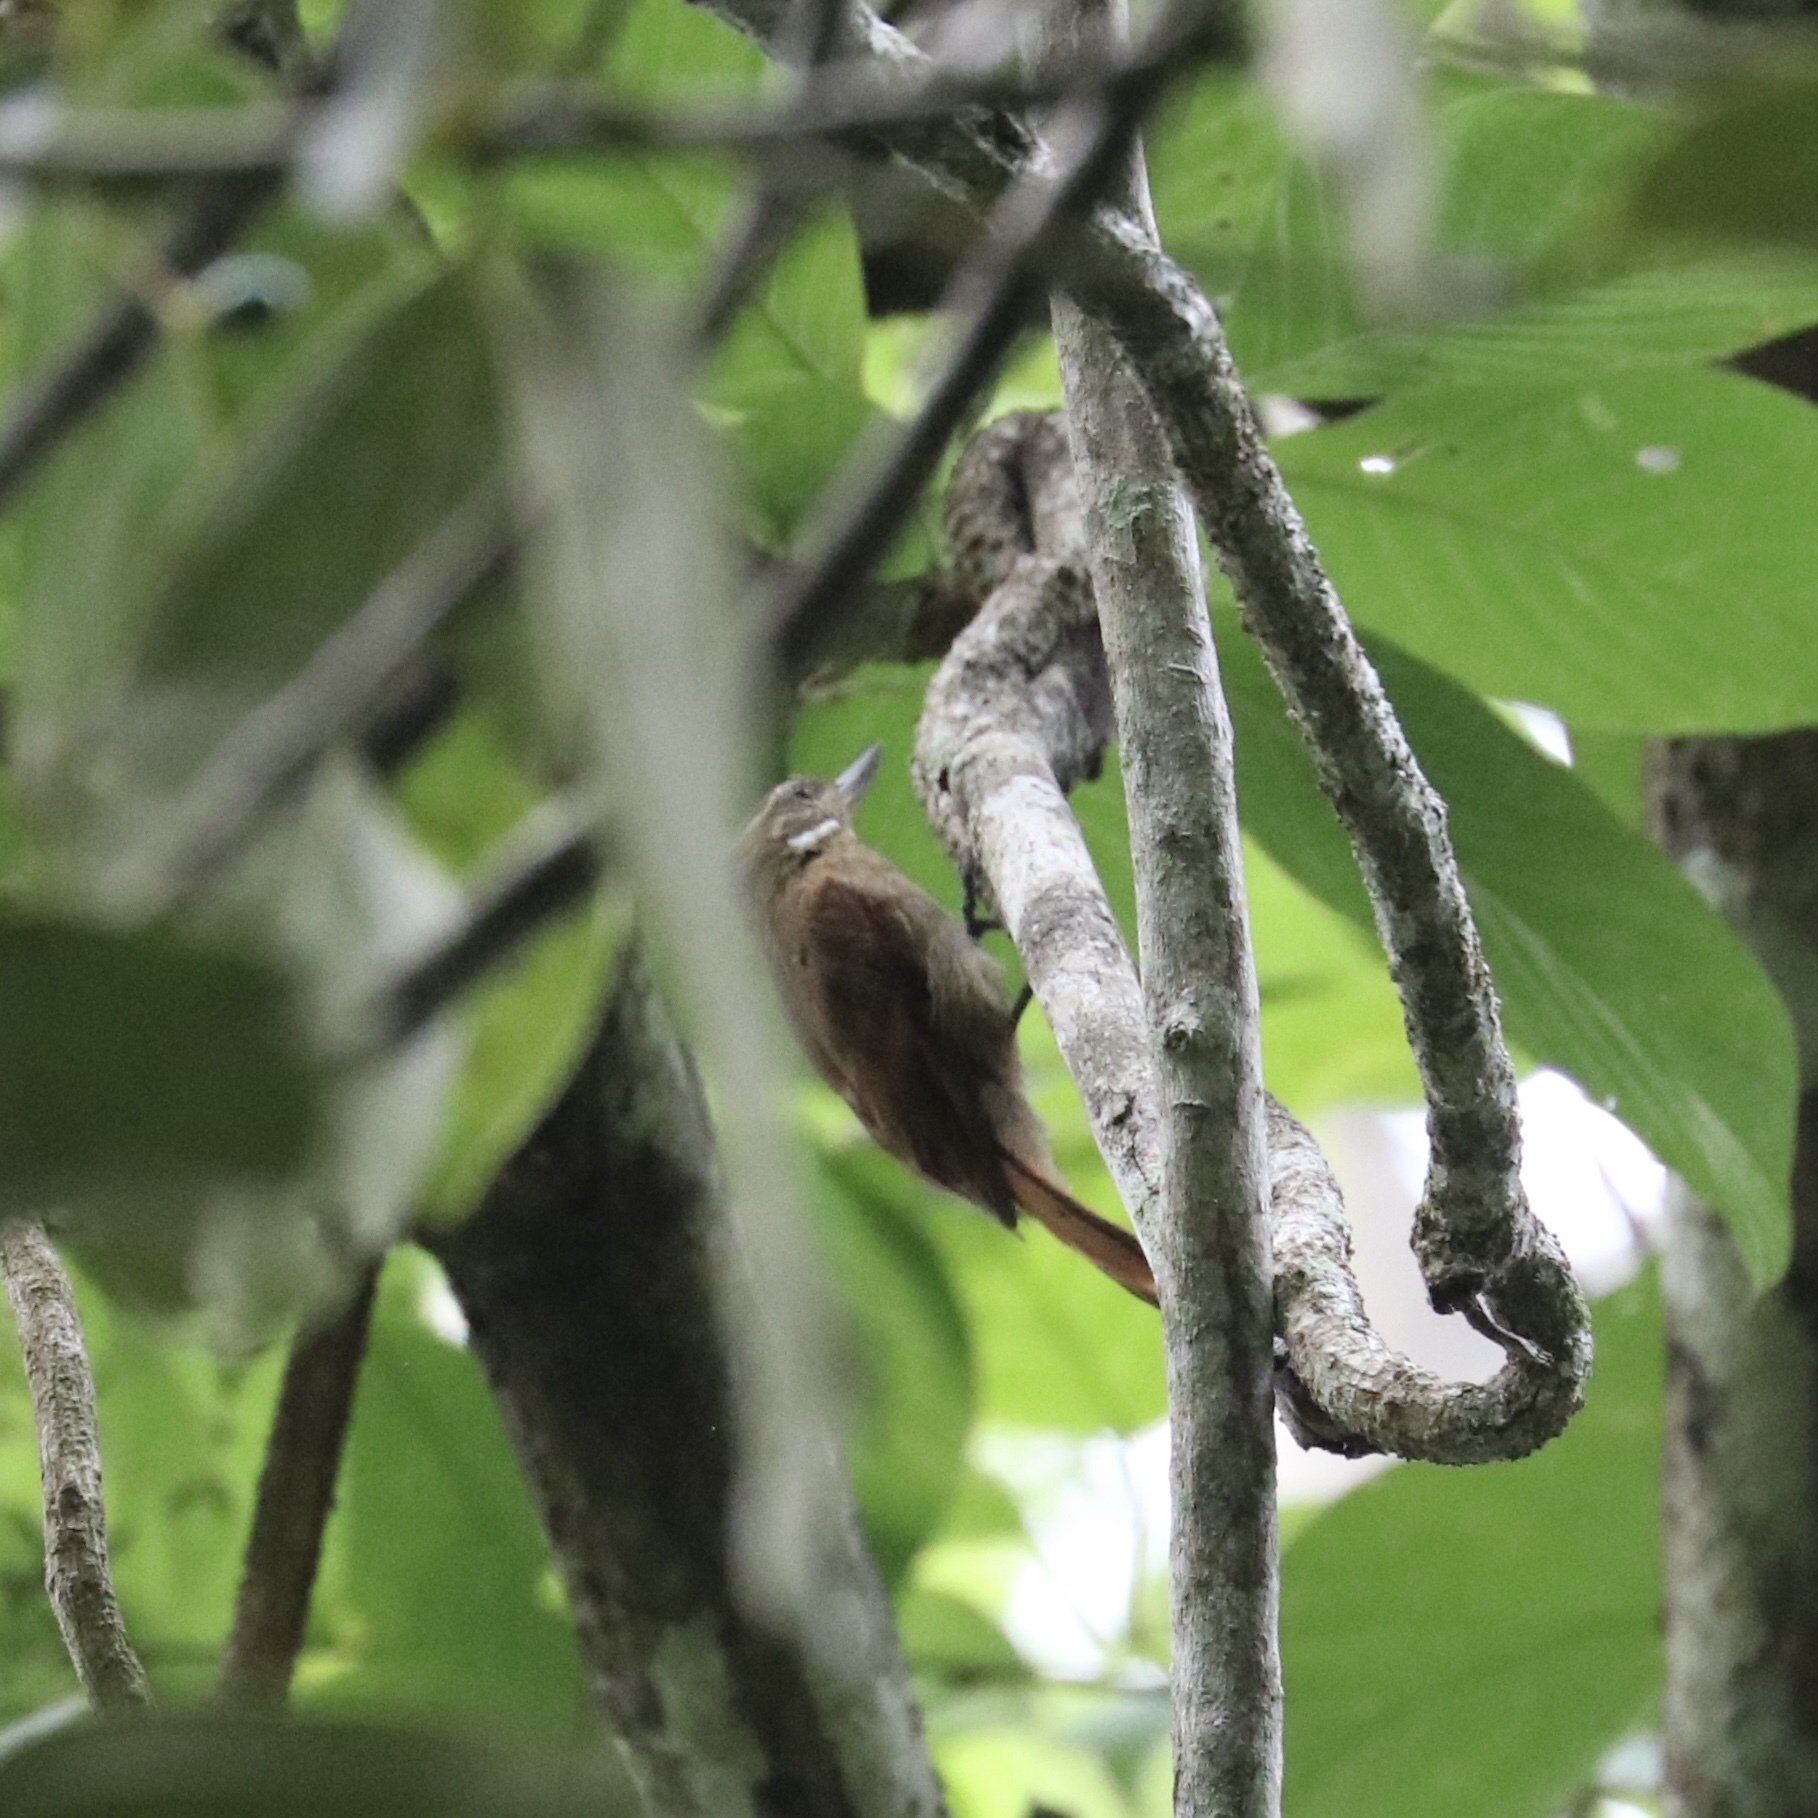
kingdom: Animalia
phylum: Chordata
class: Aves
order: Passeriformes
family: Furnariidae
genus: Xenops
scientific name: Xenops minutus
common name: Plain xenops
